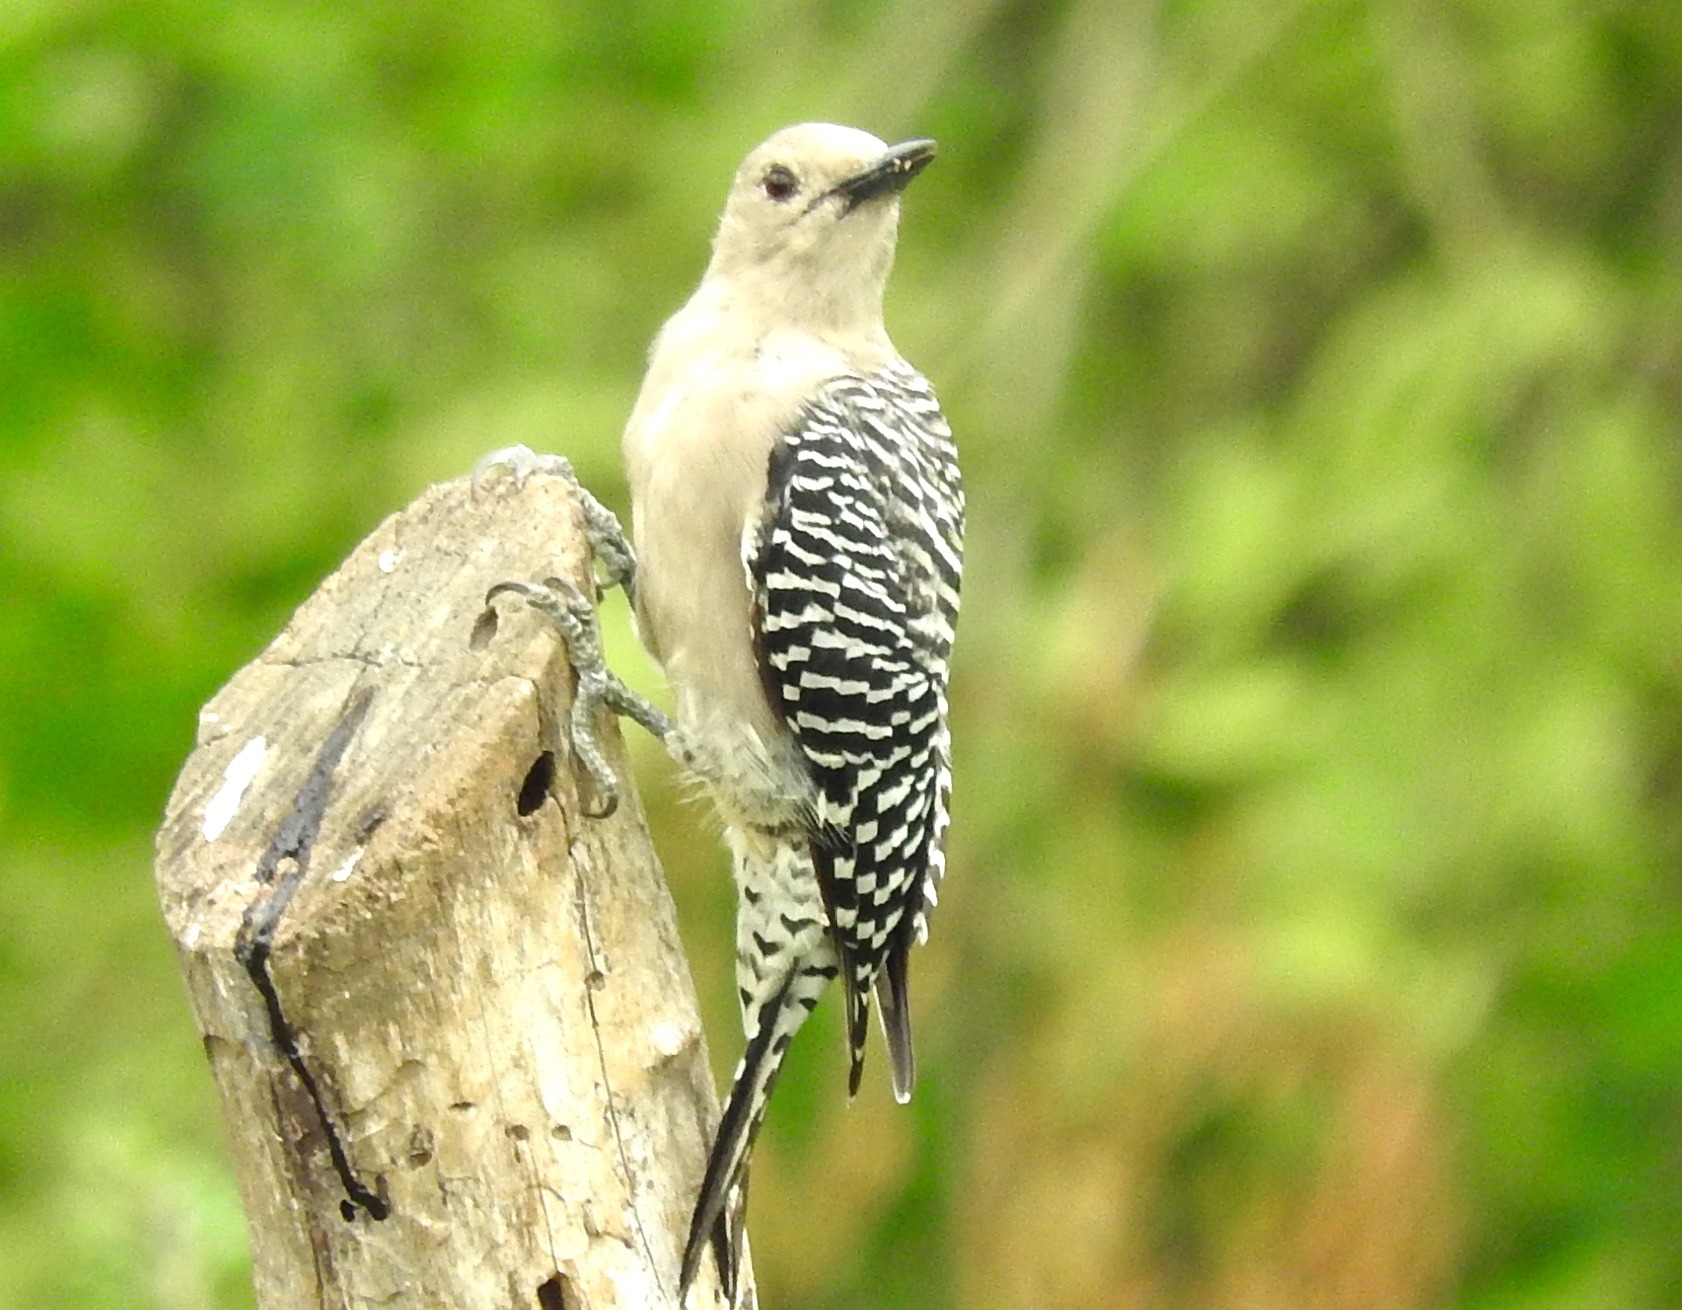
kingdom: Animalia
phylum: Chordata
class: Aves
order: Piciformes
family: Picidae
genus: Melanerpes
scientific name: Melanerpes uropygialis
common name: Gila woodpecker
